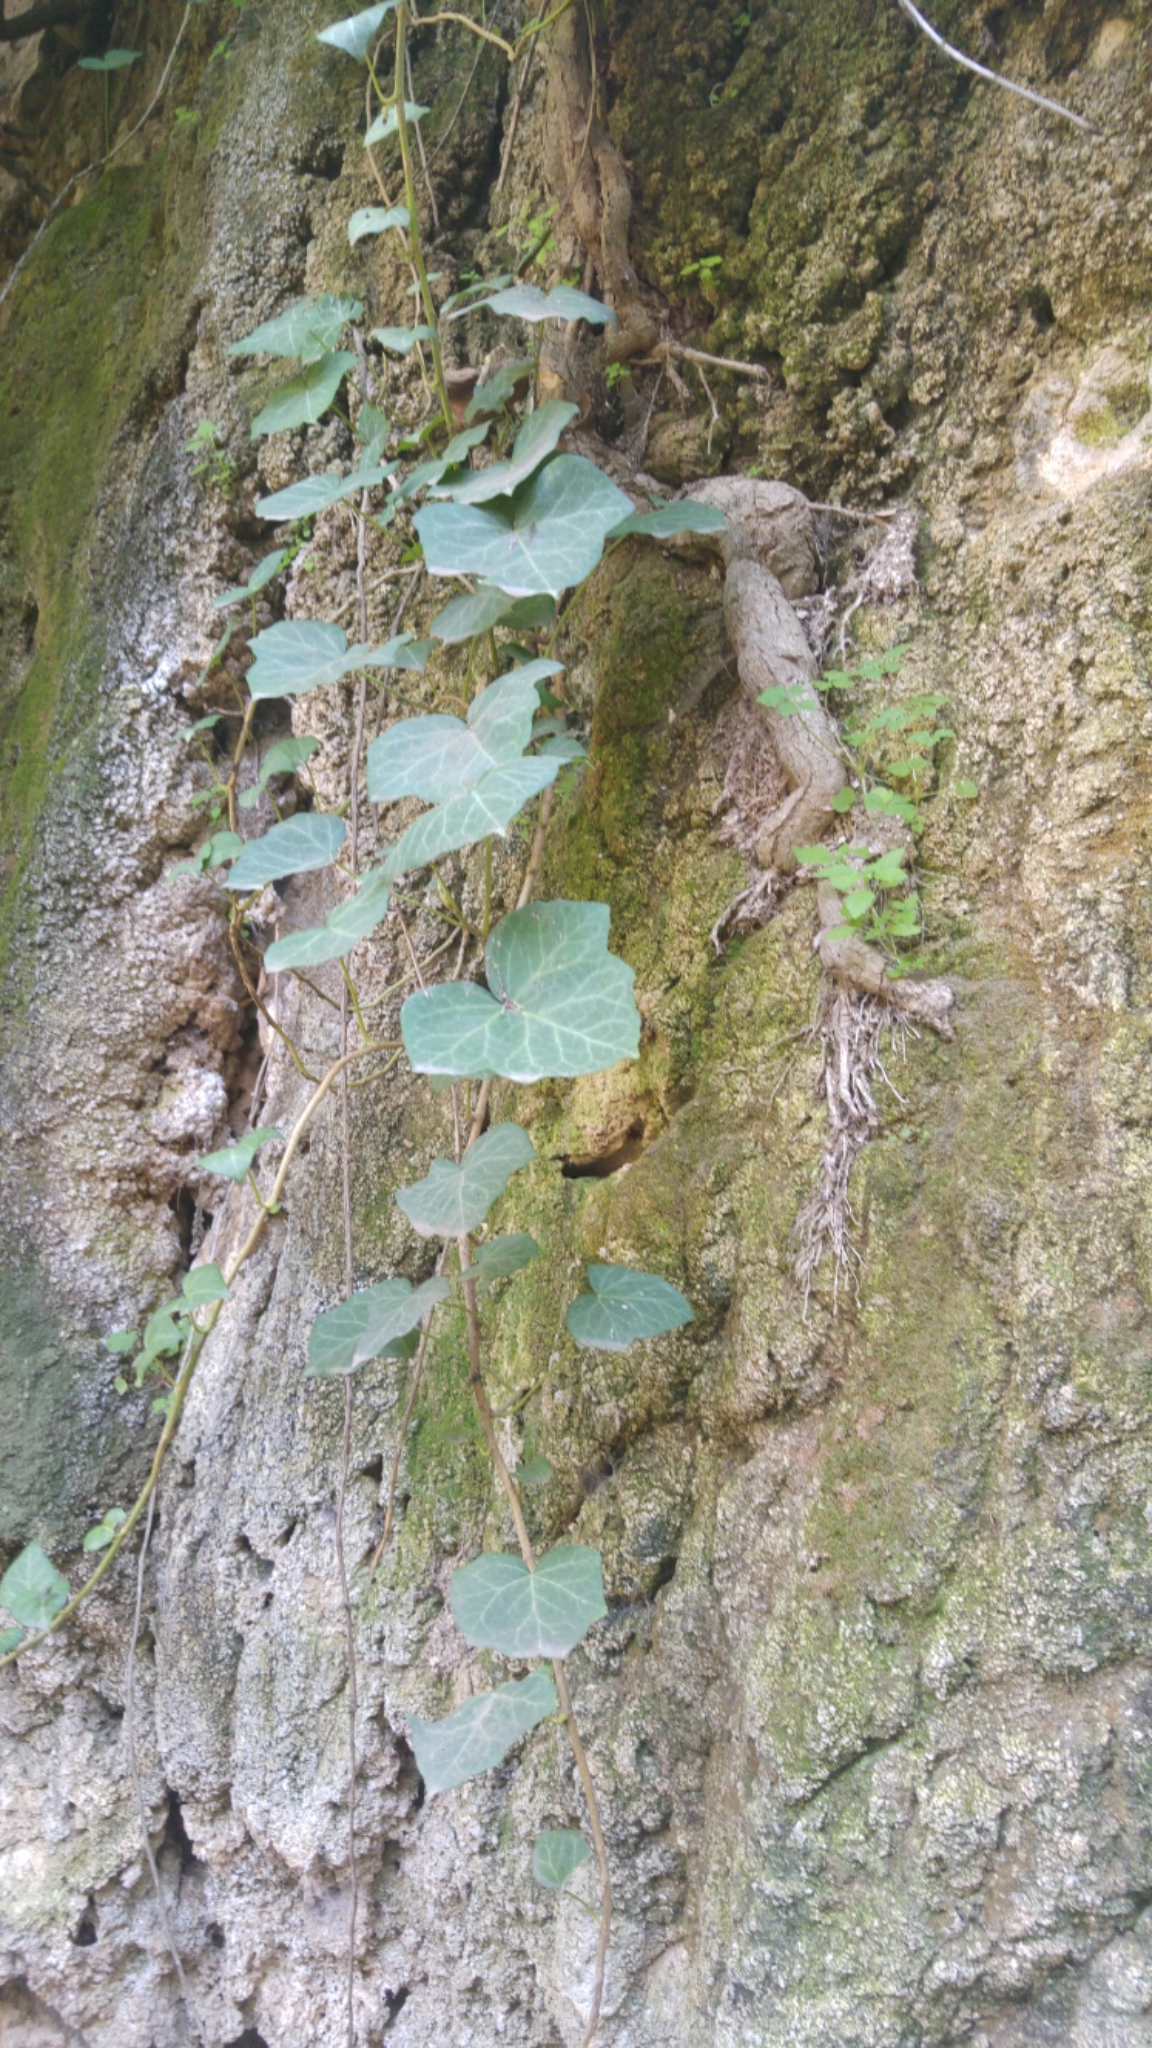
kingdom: Plantae
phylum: Tracheophyta
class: Magnoliopsida
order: Apiales
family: Araliaceae
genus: Hedera
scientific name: Hedera helix
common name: Ivy
